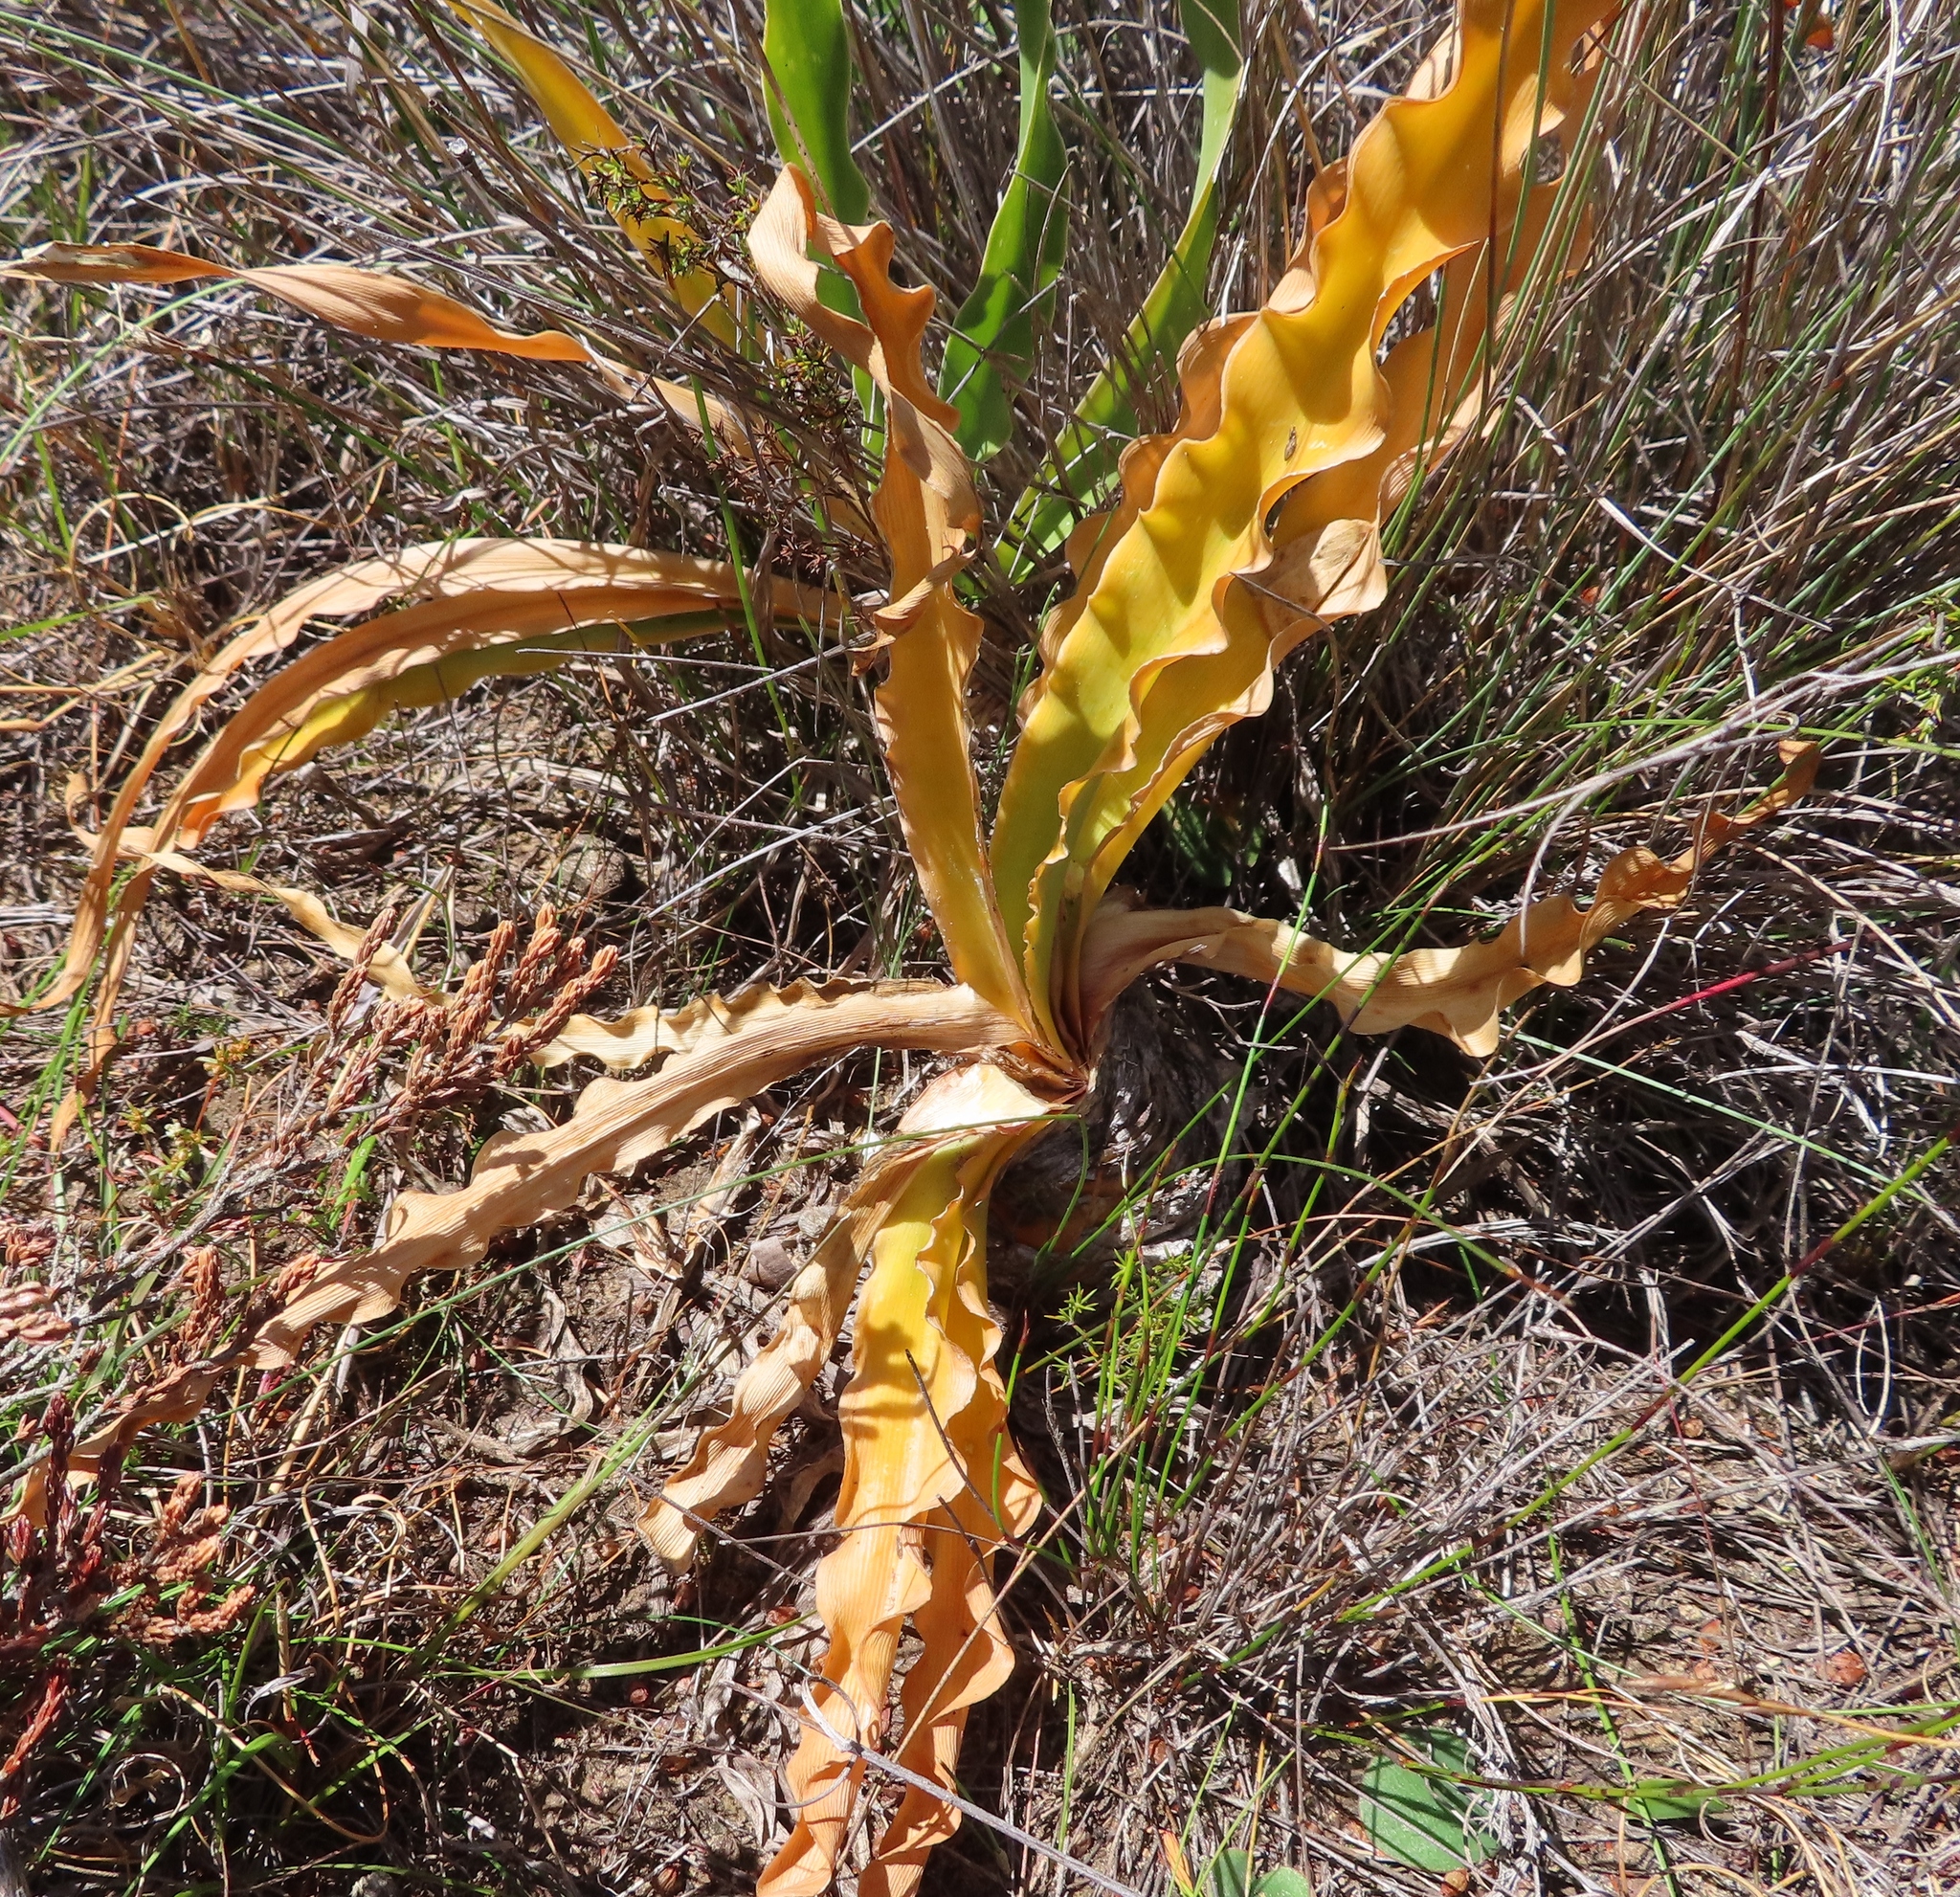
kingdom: Plantae
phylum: Tracheophyta
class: Liliopsida
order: Asparagales
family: Amaryllidaceae
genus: Boophone
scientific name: Boophone disticha
